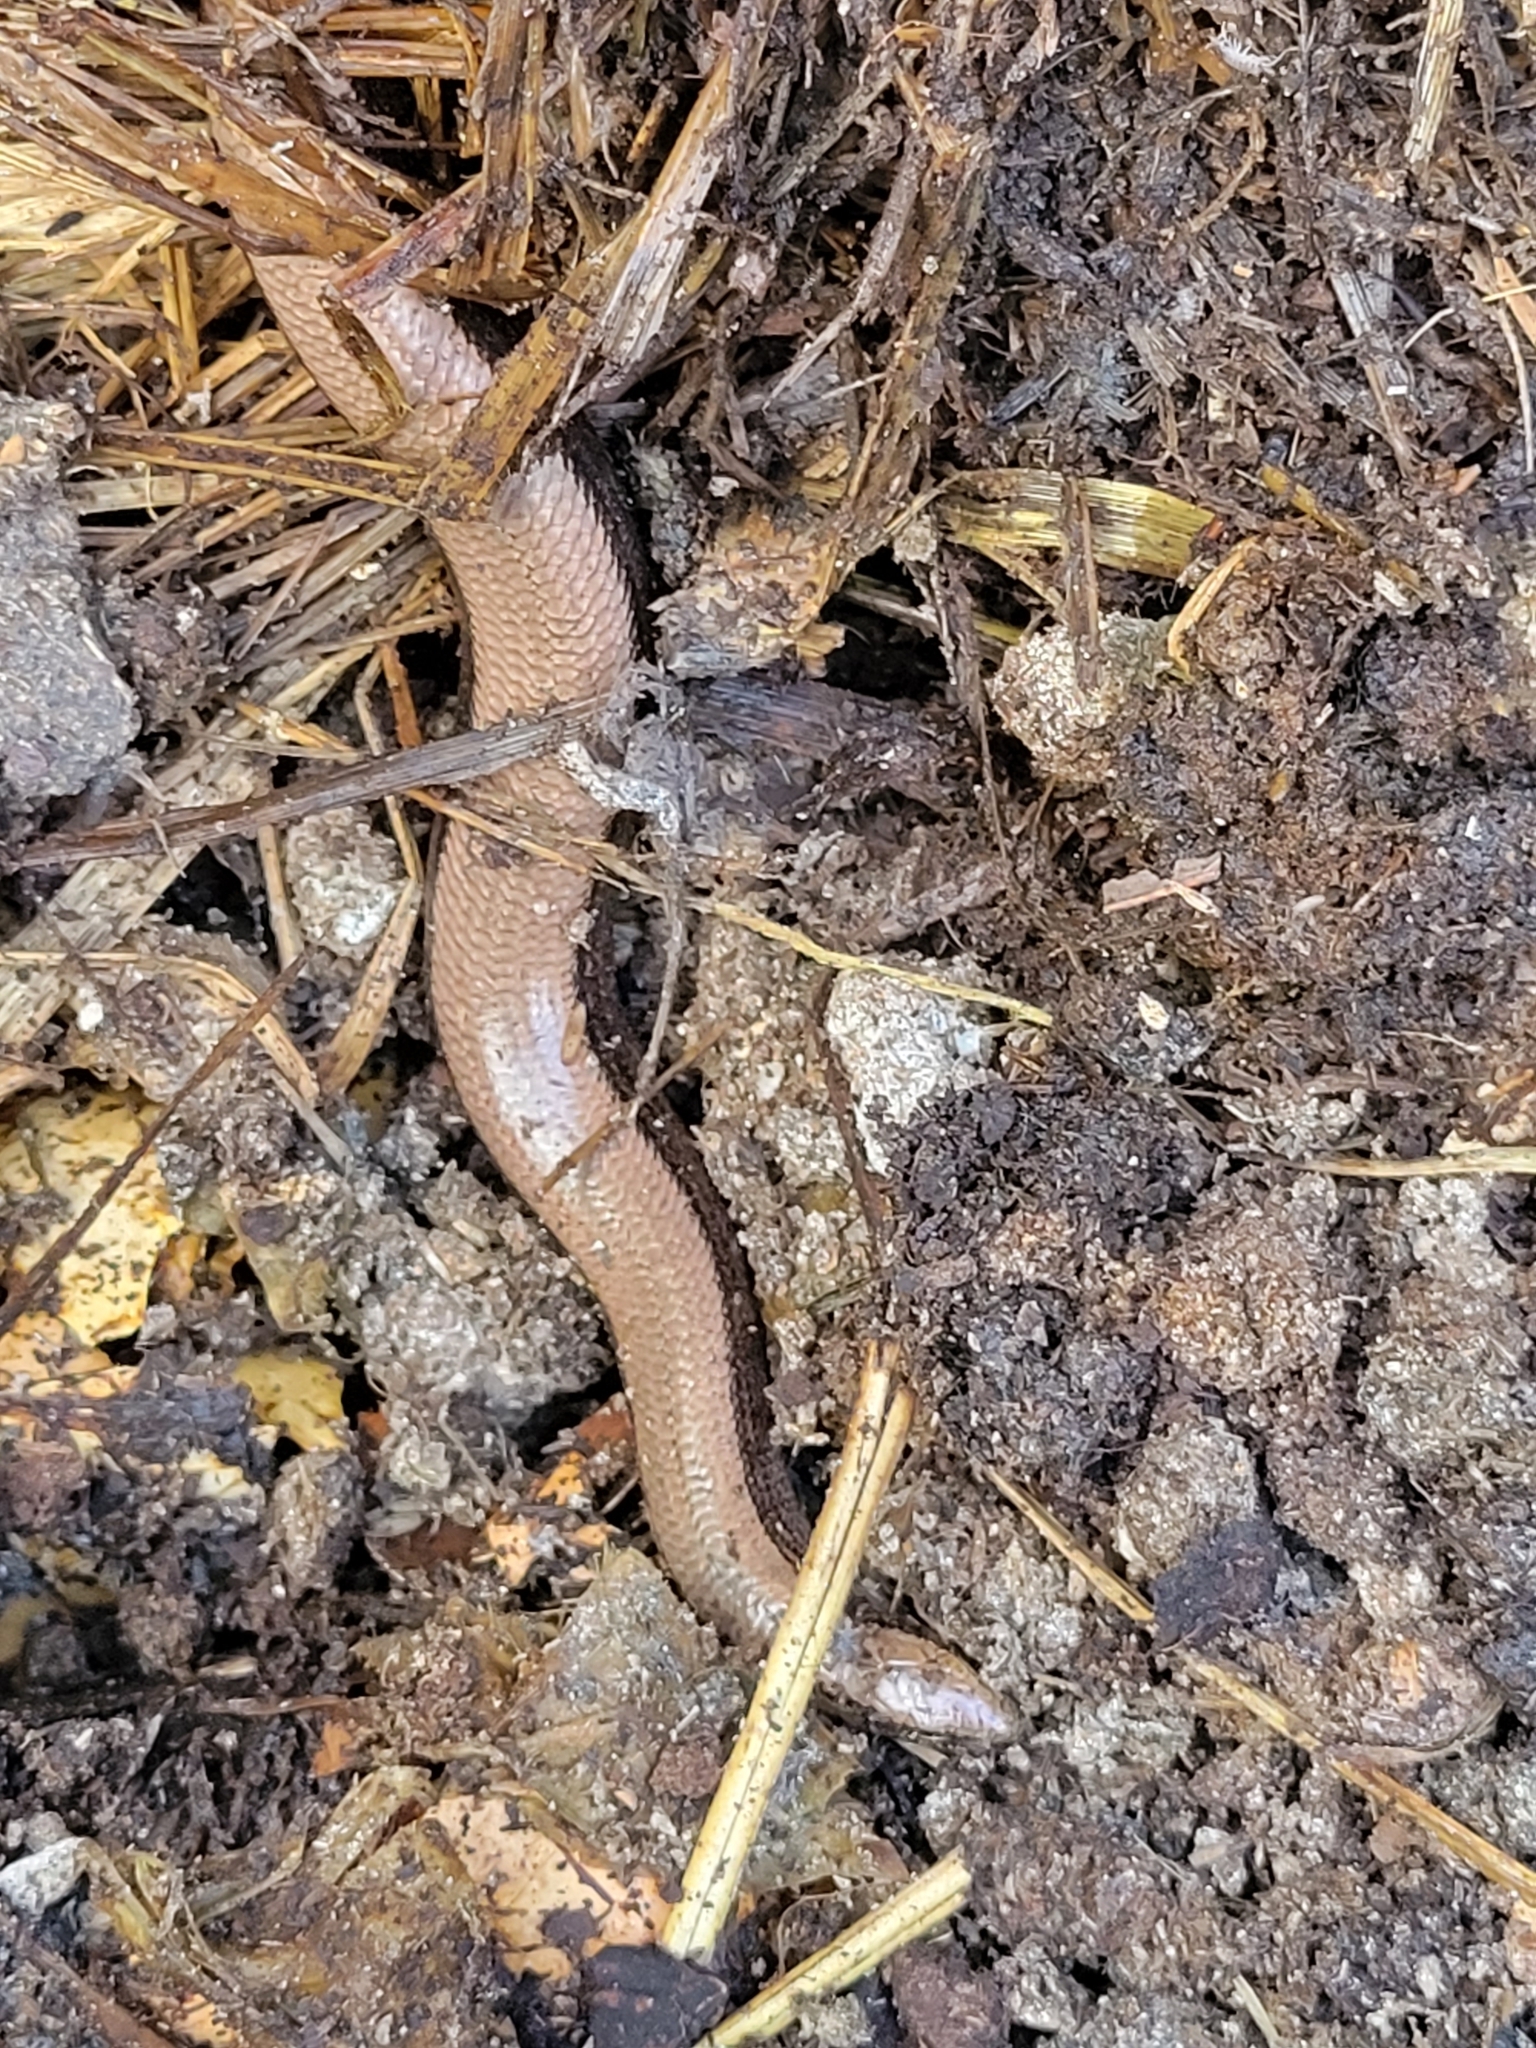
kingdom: Animalia
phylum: Chordata
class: Squamata
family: Anguidae
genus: Anguis
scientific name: Anguis fragilis
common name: Slow worm
